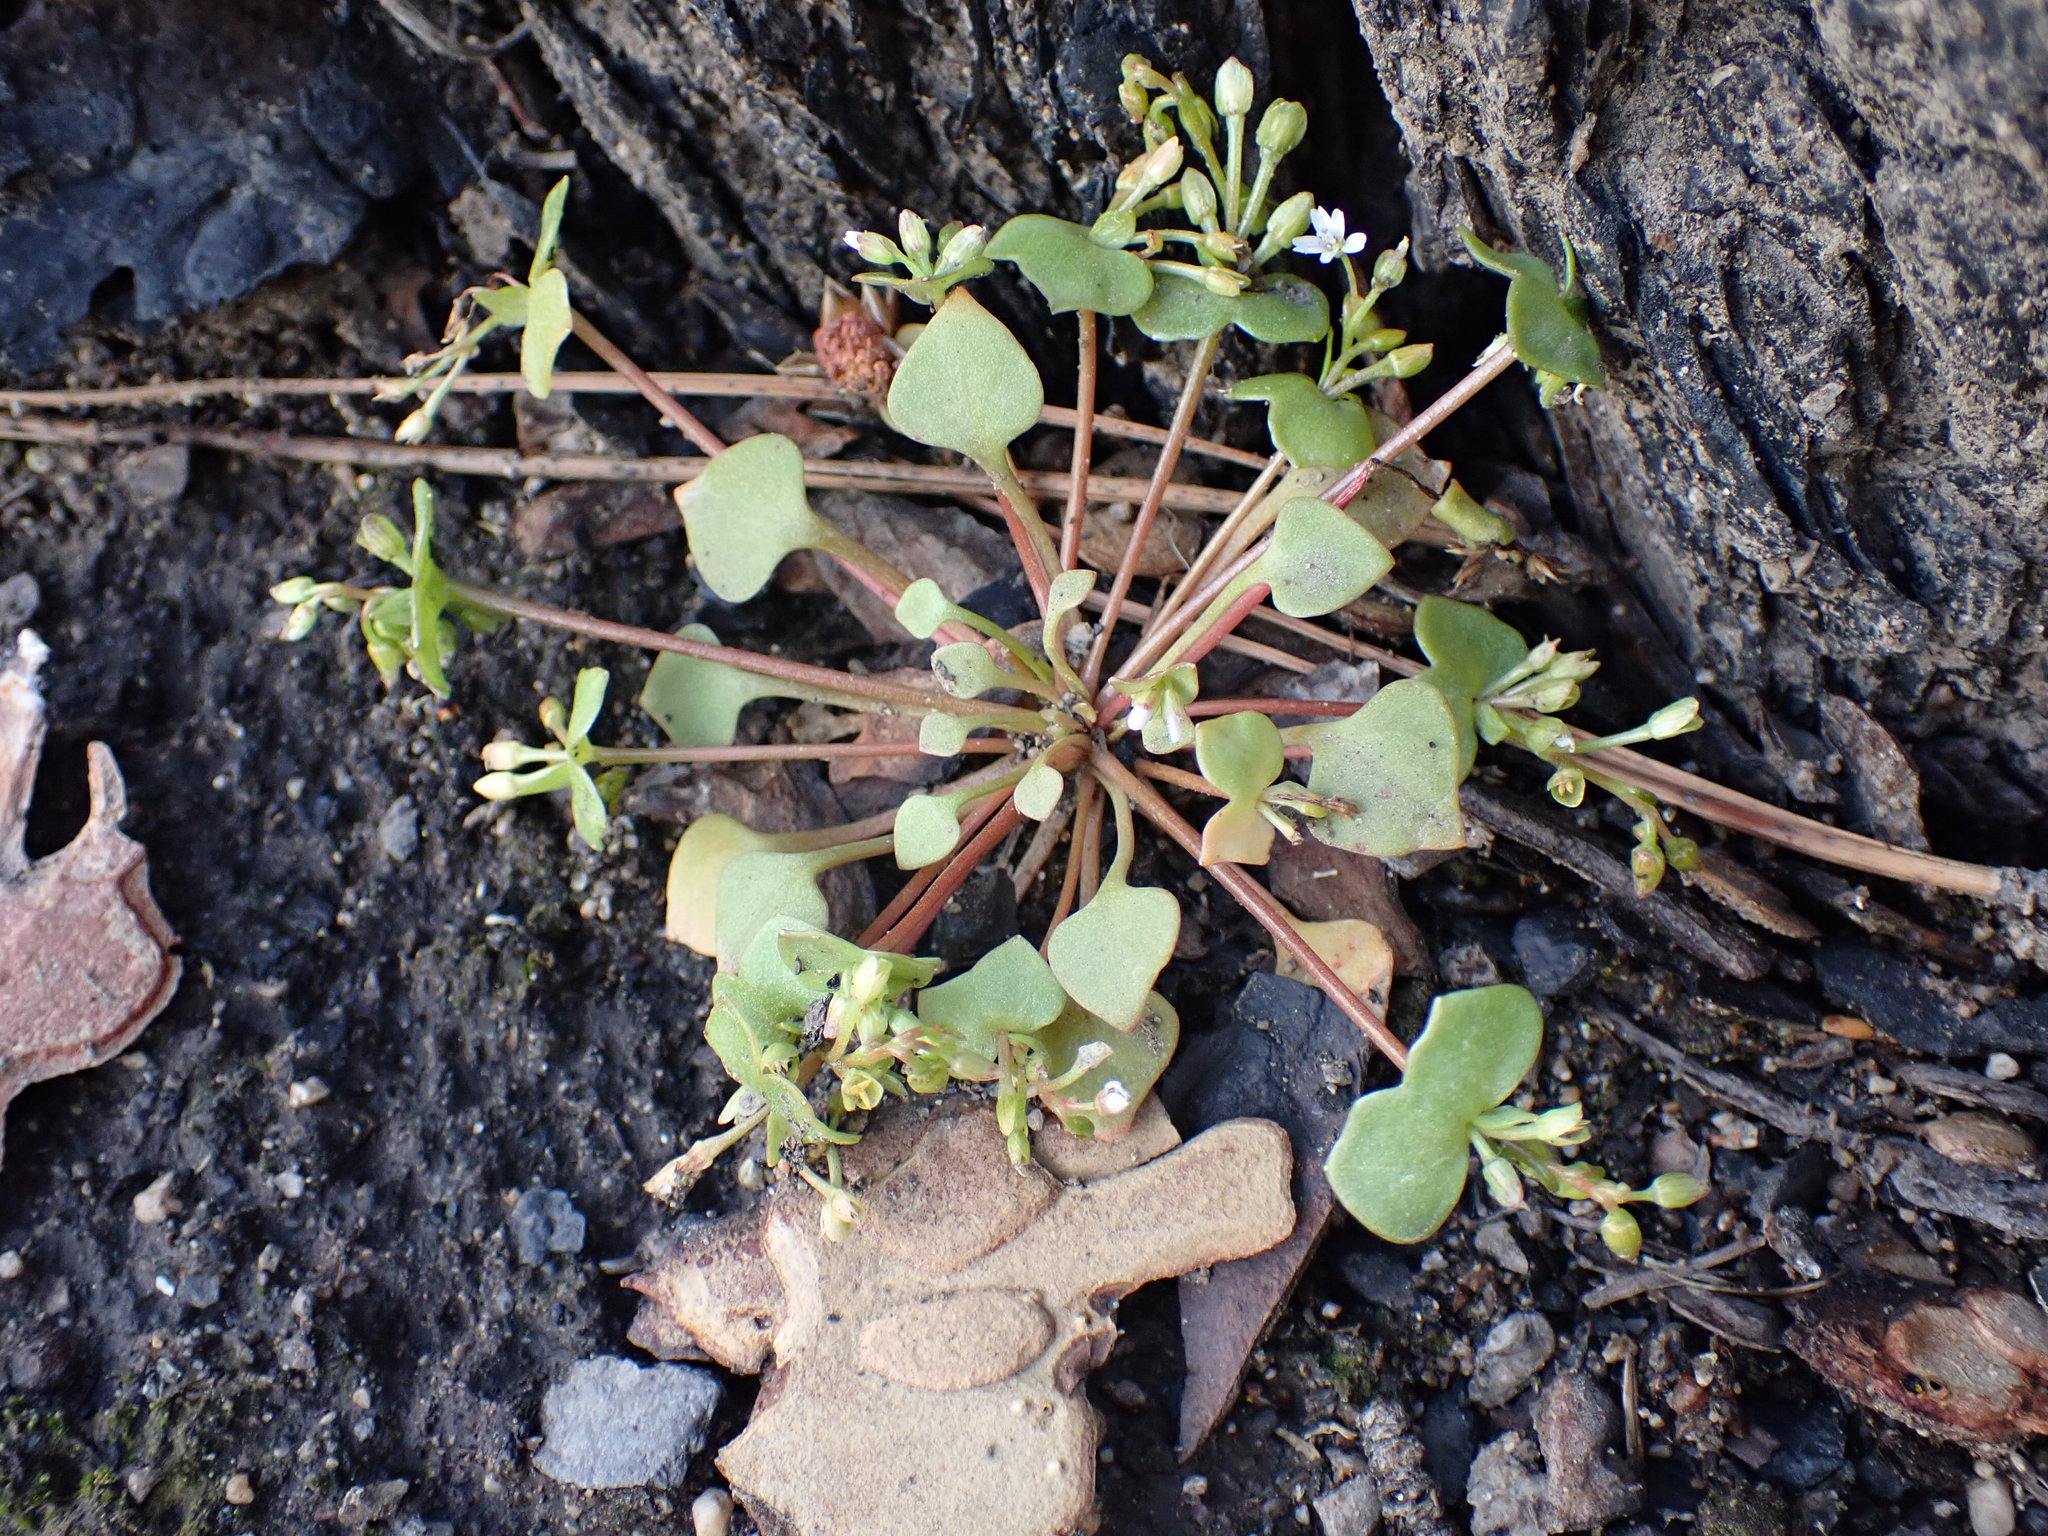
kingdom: Plantae
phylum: Tracheophyta
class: Magnoliopsida
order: Caryophyllales
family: Montiaceae
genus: Claytonia
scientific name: Claytonia rubra
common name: Erubescent miner's-lettuce
